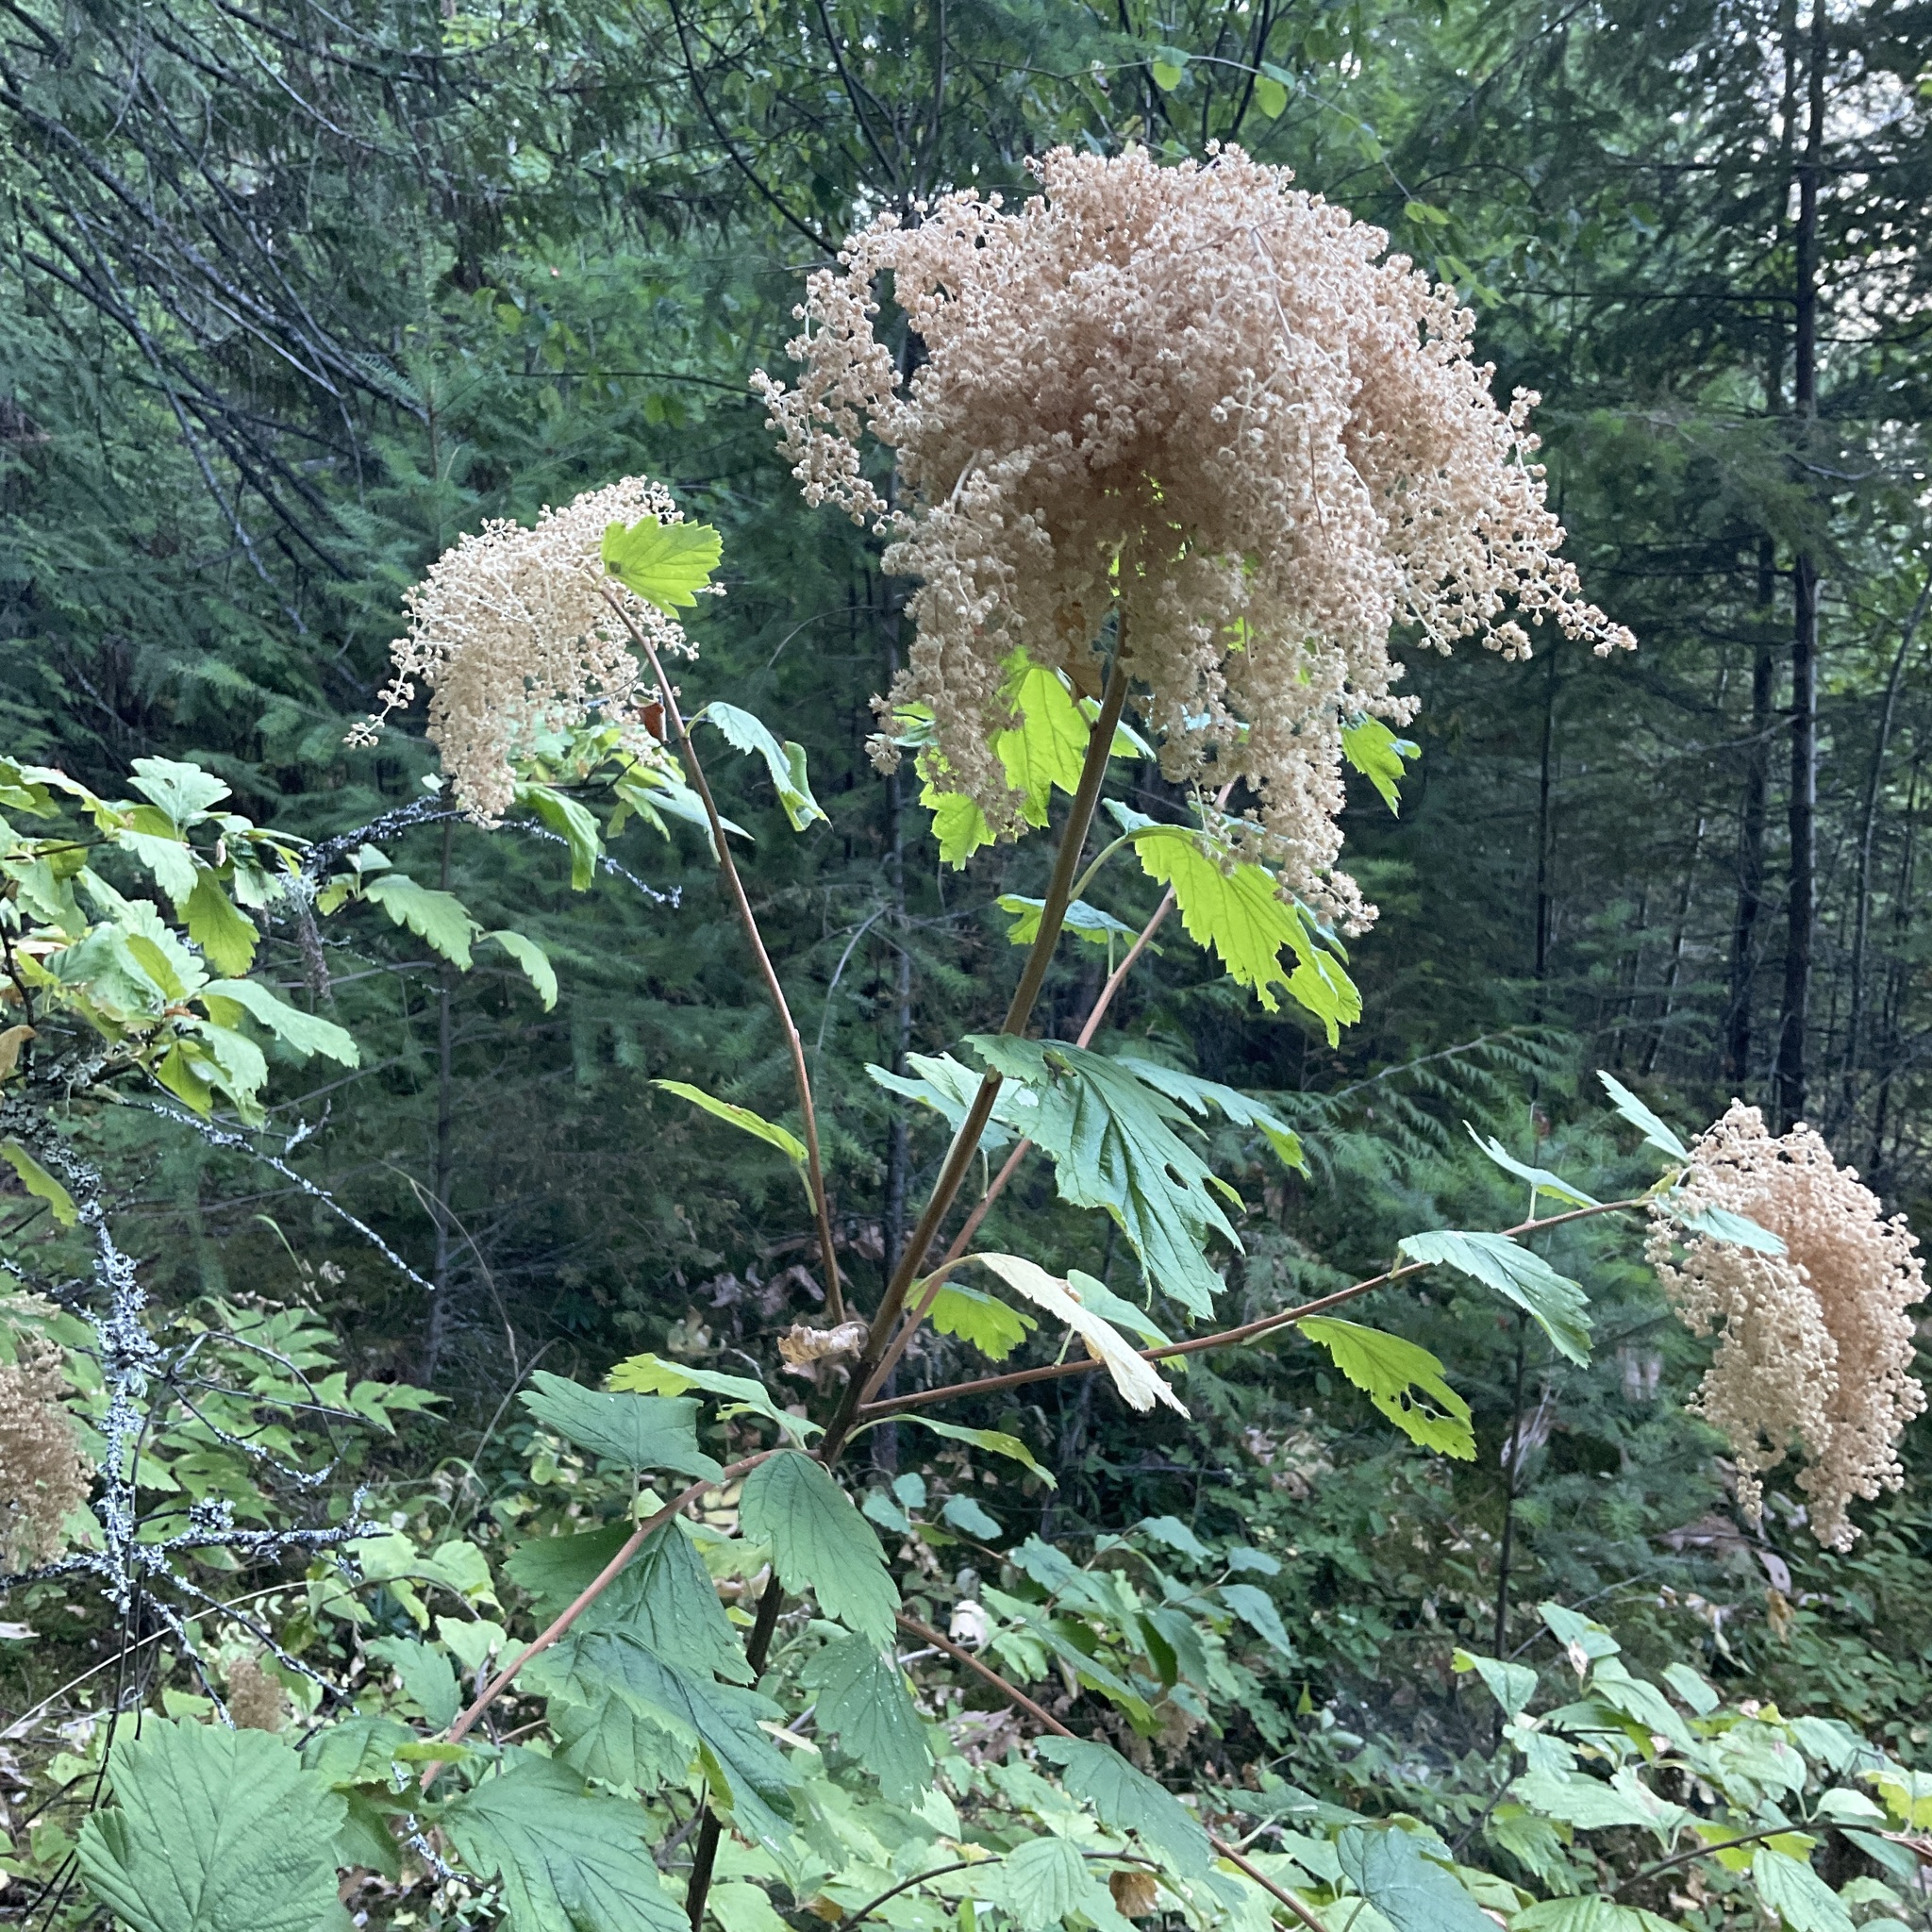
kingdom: Plantae
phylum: Tracheophyta
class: Magnoliopsida
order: Rosales
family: Rosaceae
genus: Holodiscus
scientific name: Holodiscus discolor
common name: Oceanspray
